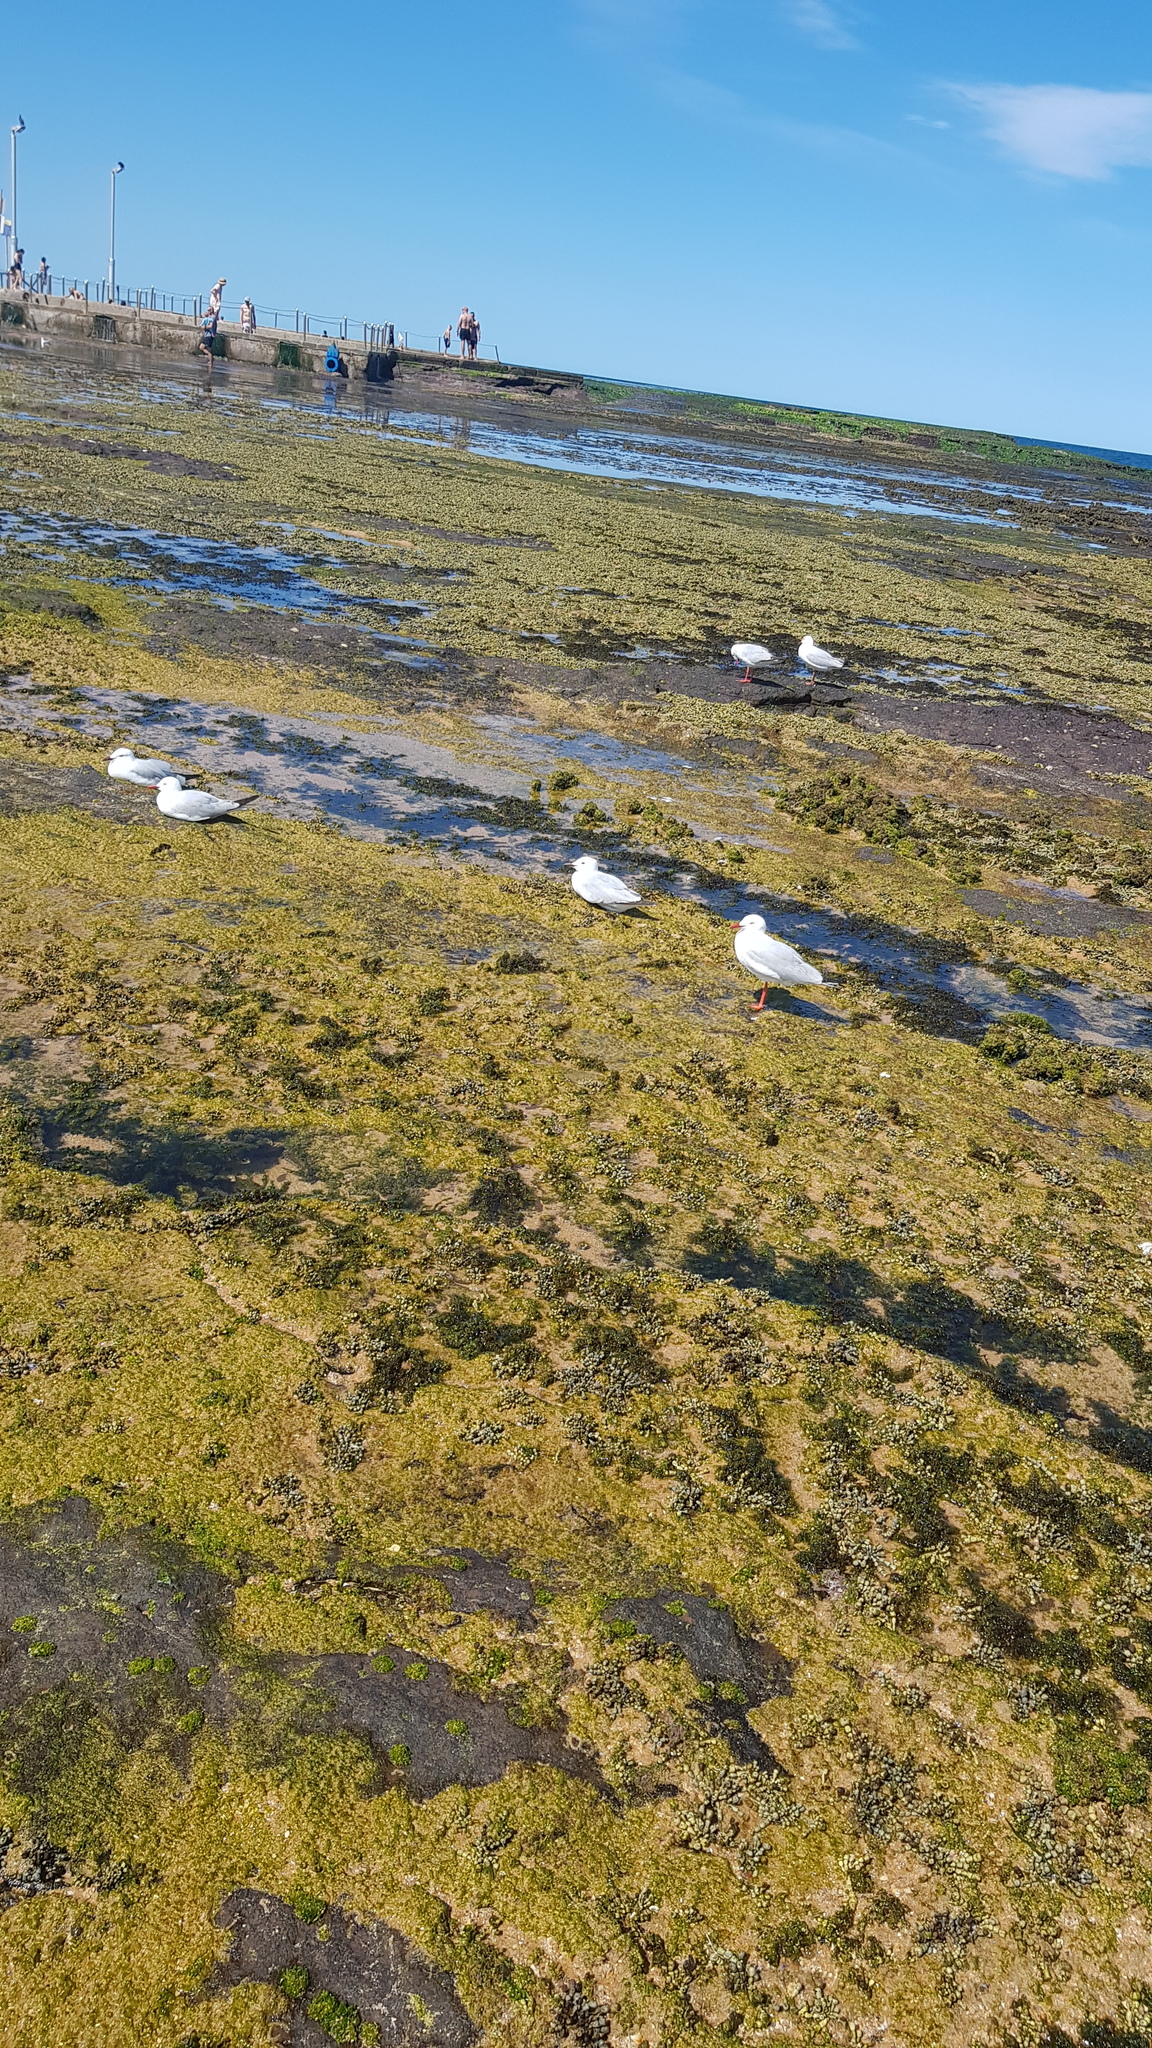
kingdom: Animalia
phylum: Chordata
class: Aves
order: Charadriiformes
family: Laridae
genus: Chroicocephalus
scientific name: Chroicocephalus novaehollandiae
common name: Silver gull
